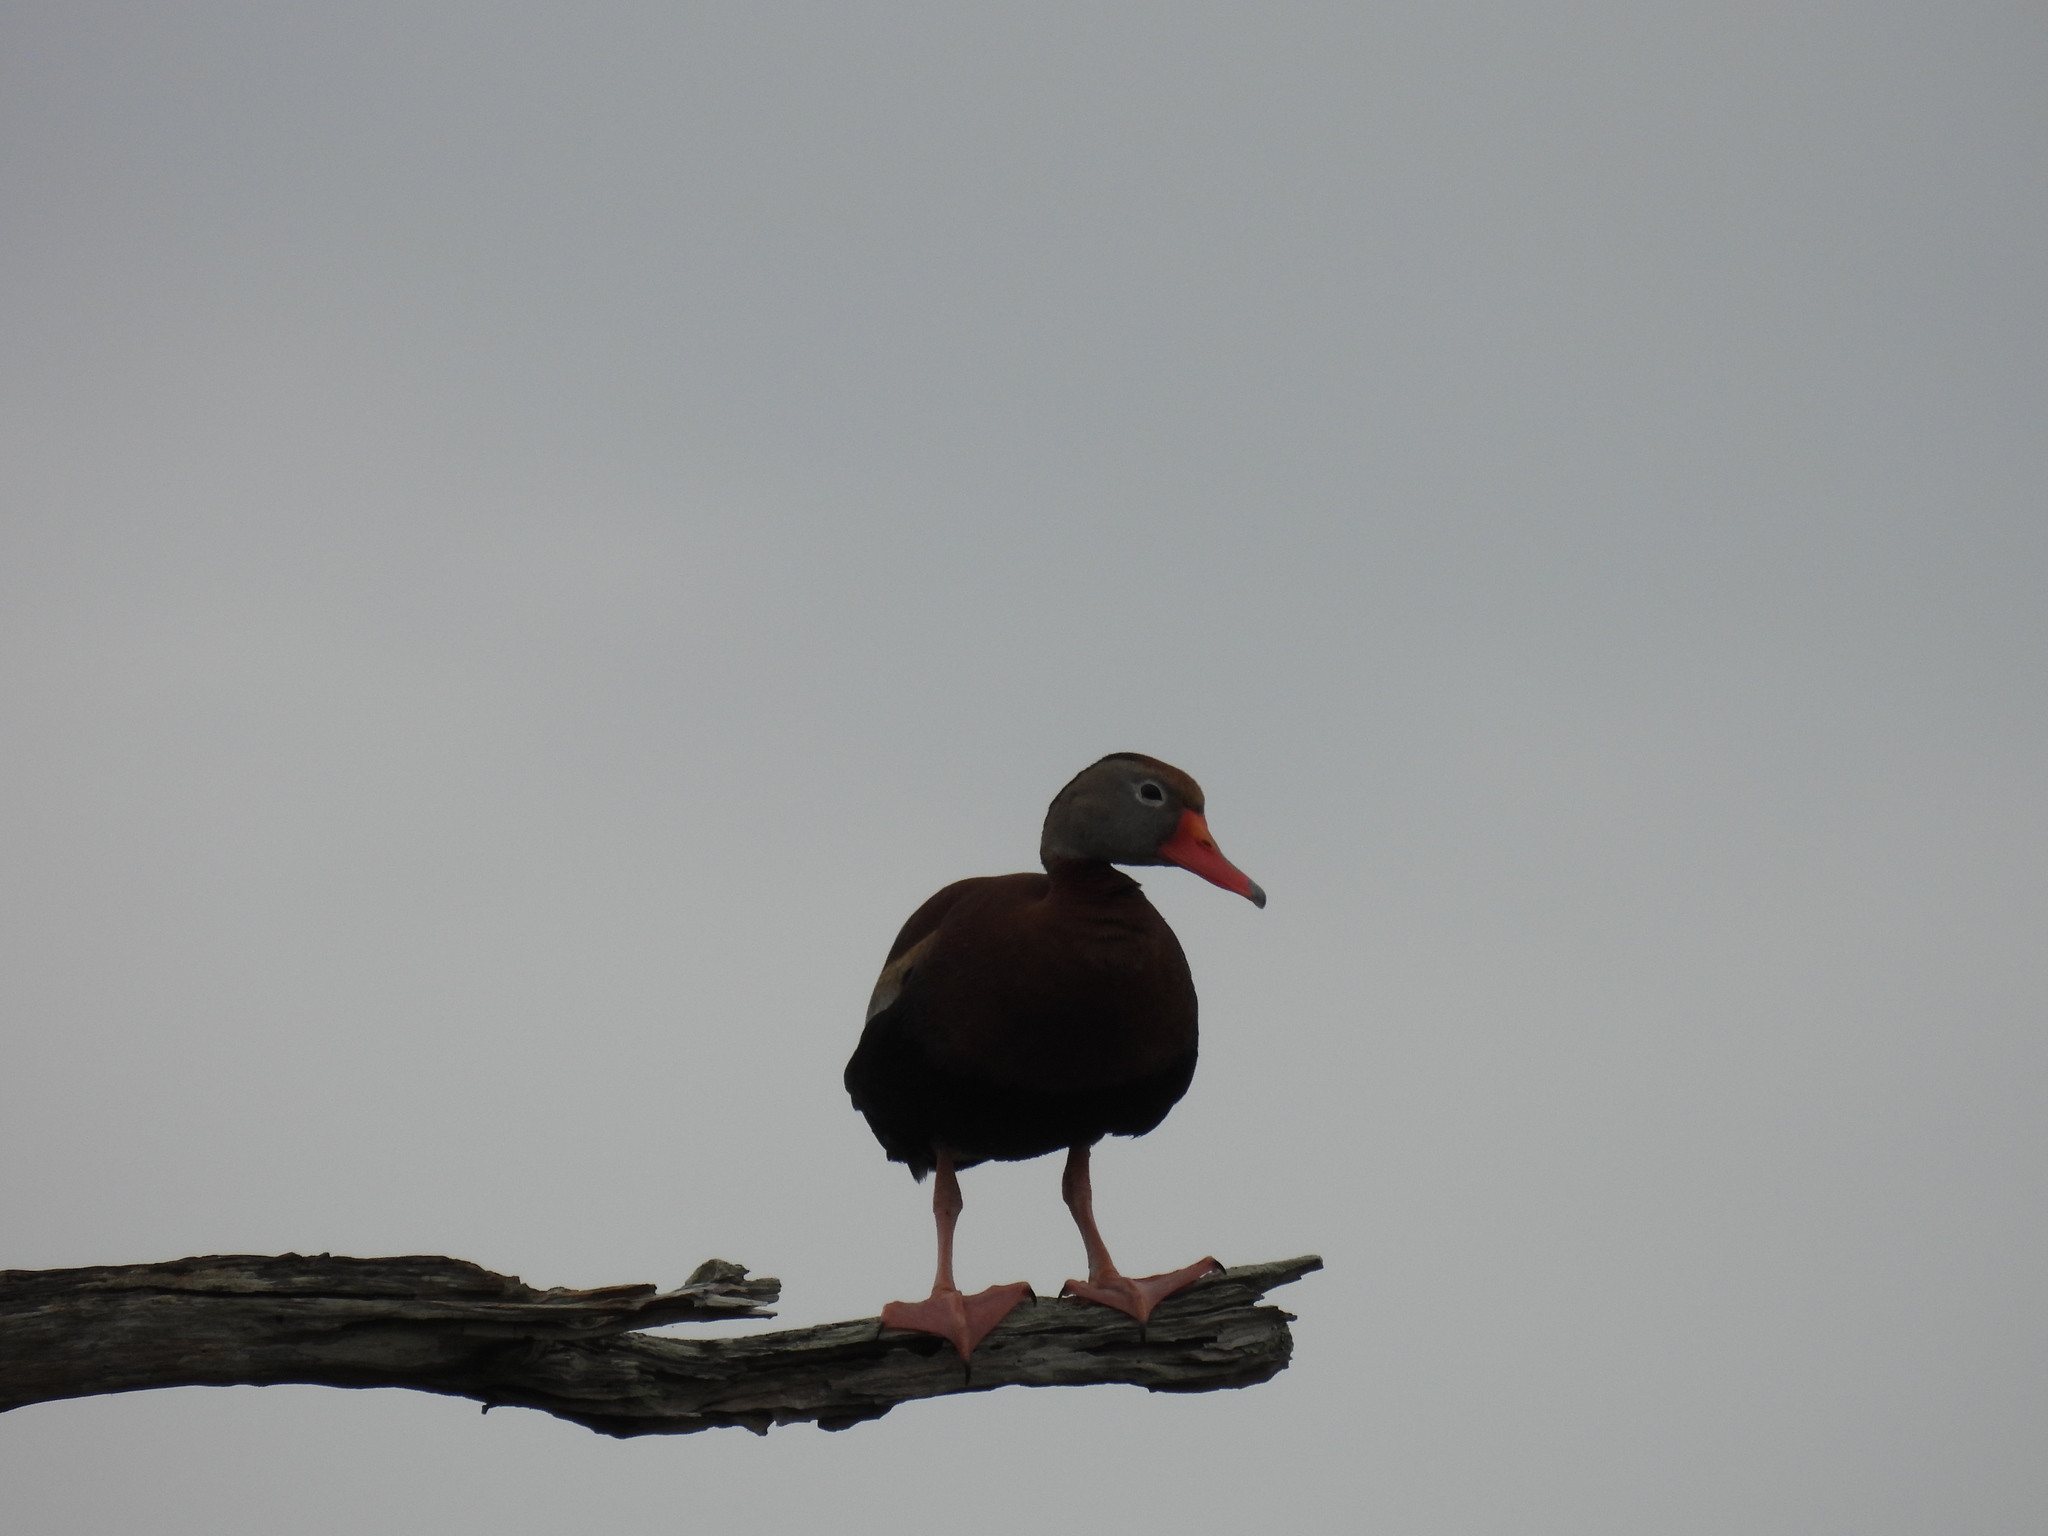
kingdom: Animalia
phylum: Chordata
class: Aves
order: Anseriformes
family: Anatidae
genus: Dendrocygna
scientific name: Dendrocygna autumnalis
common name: Black-bellied whistling duck
